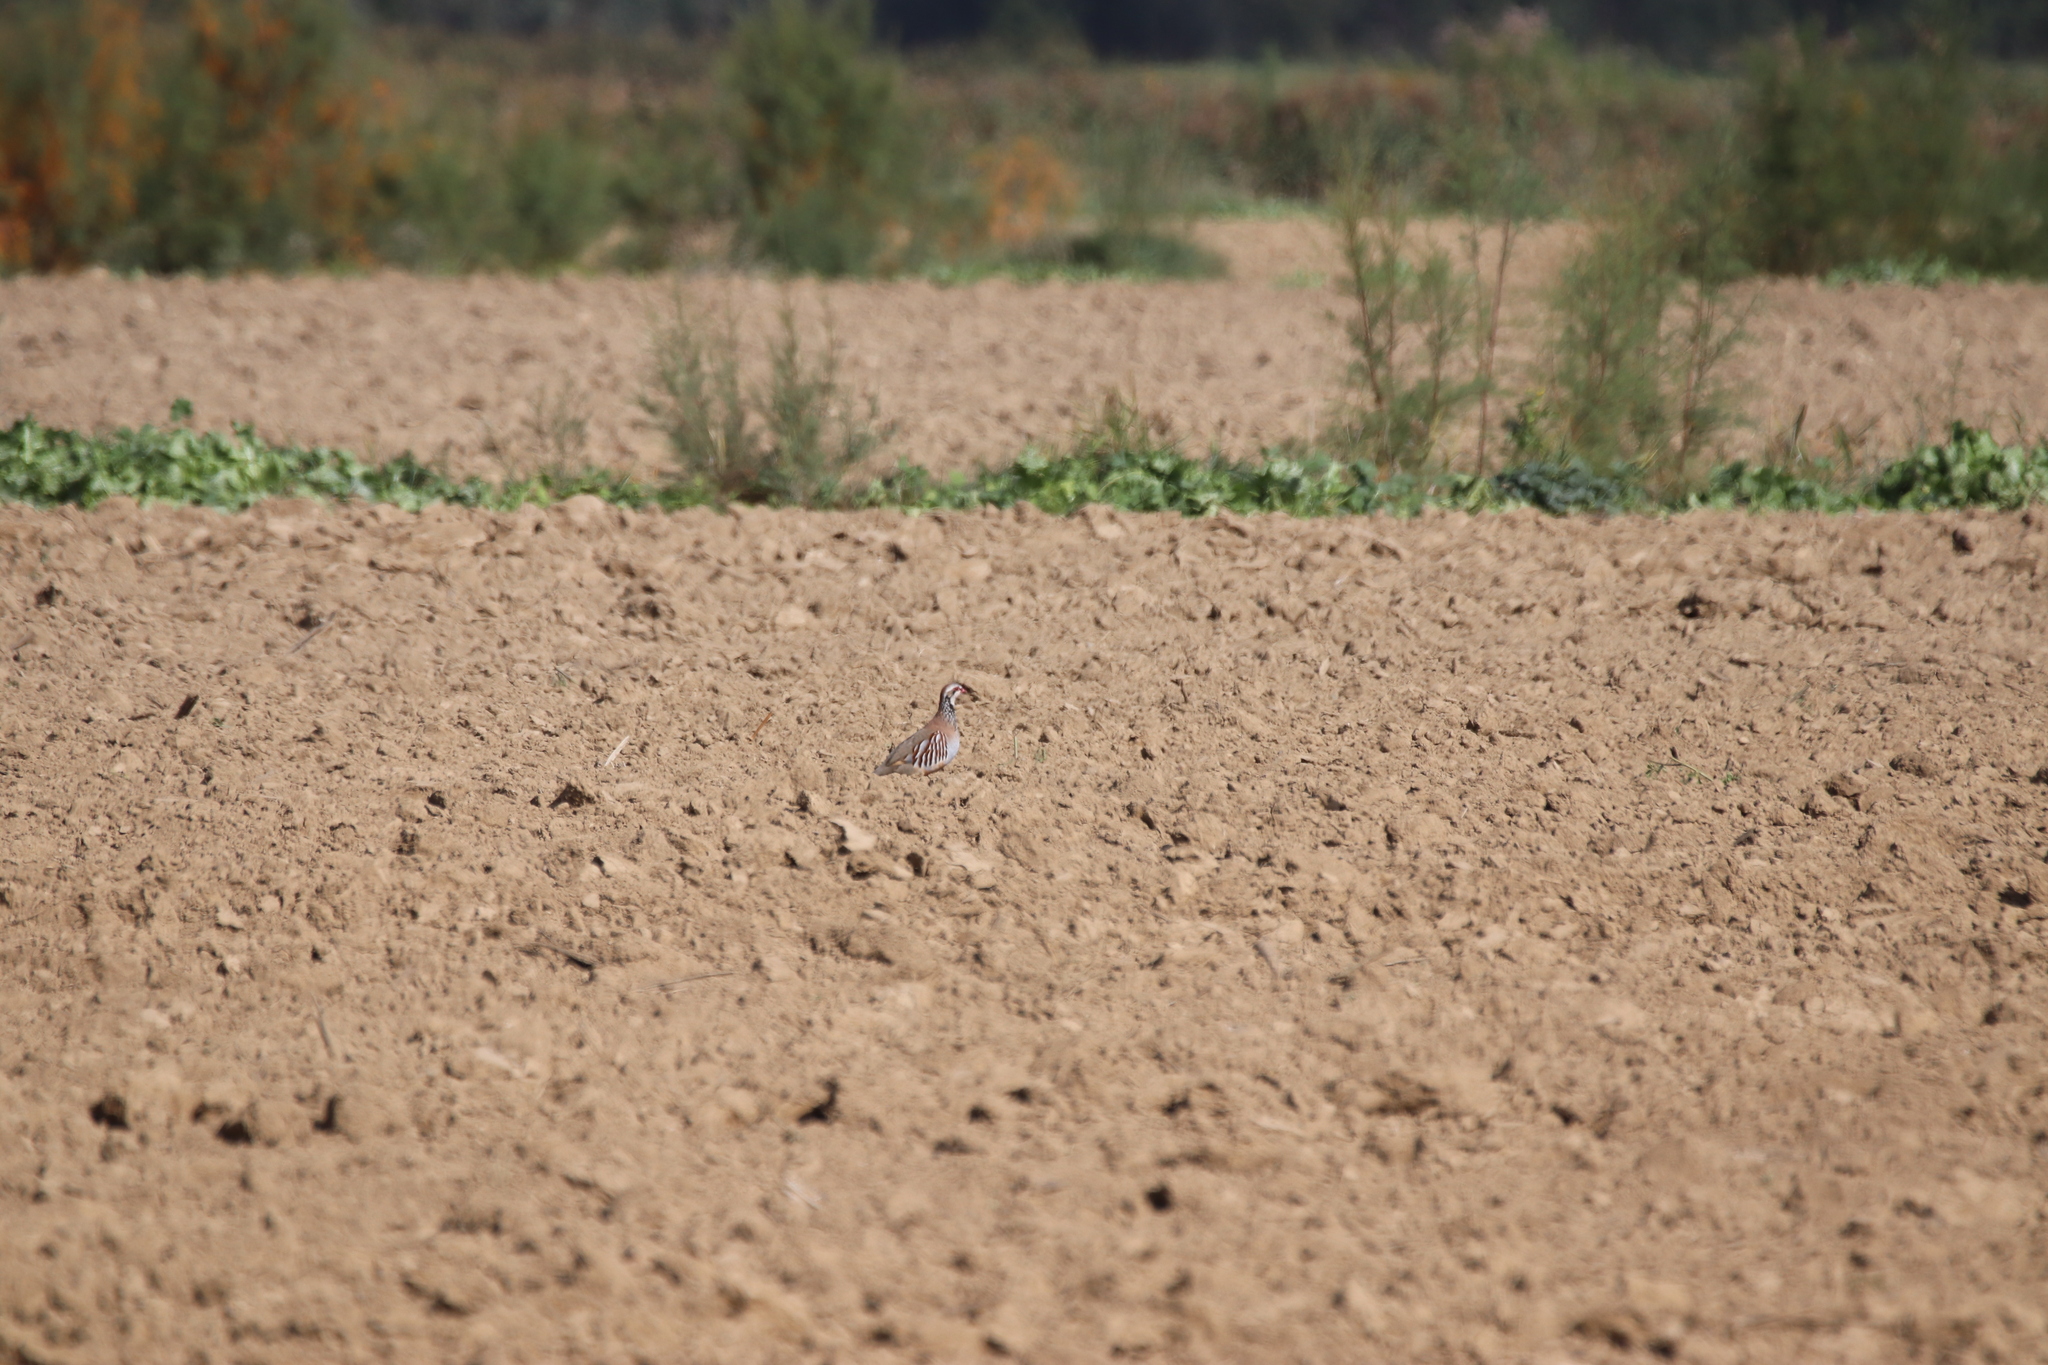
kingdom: Animalia
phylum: Chordata
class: Aves
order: Galliformes
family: Phasianidae
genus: Alectoris
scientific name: Alectoris rufa
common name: Red-legged partridge
